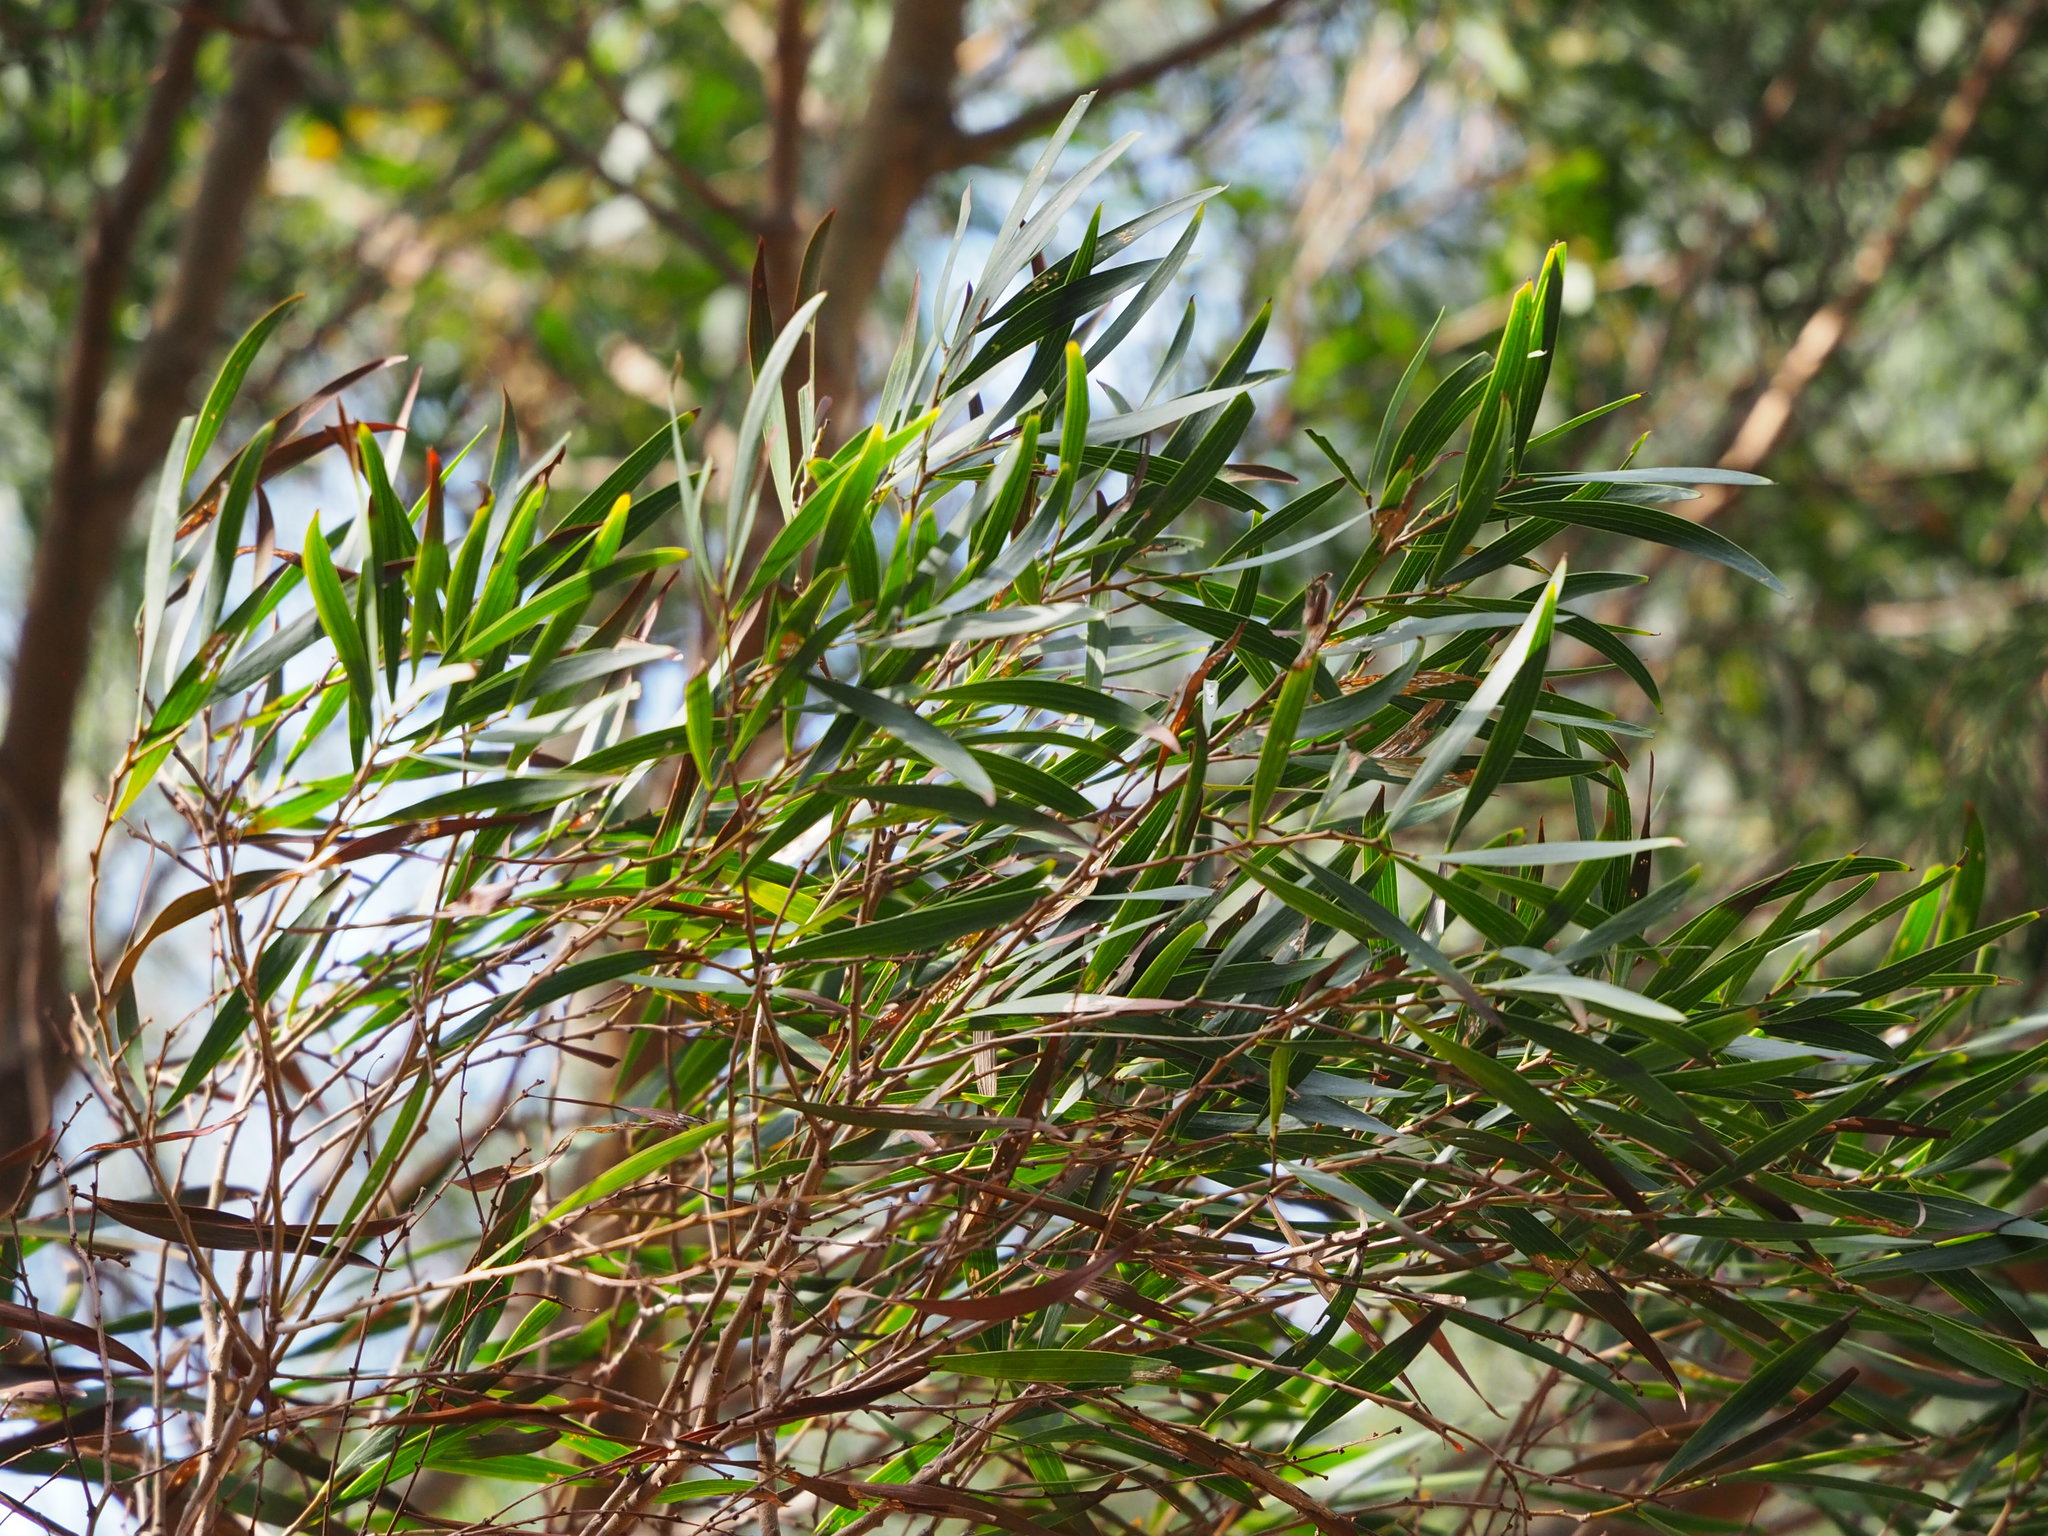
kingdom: Plantae
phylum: Tracheophyta
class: Magnoliopsida
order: Fabales
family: Fabaceae
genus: Acacia
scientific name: Acacia confusa
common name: Formosan koa
